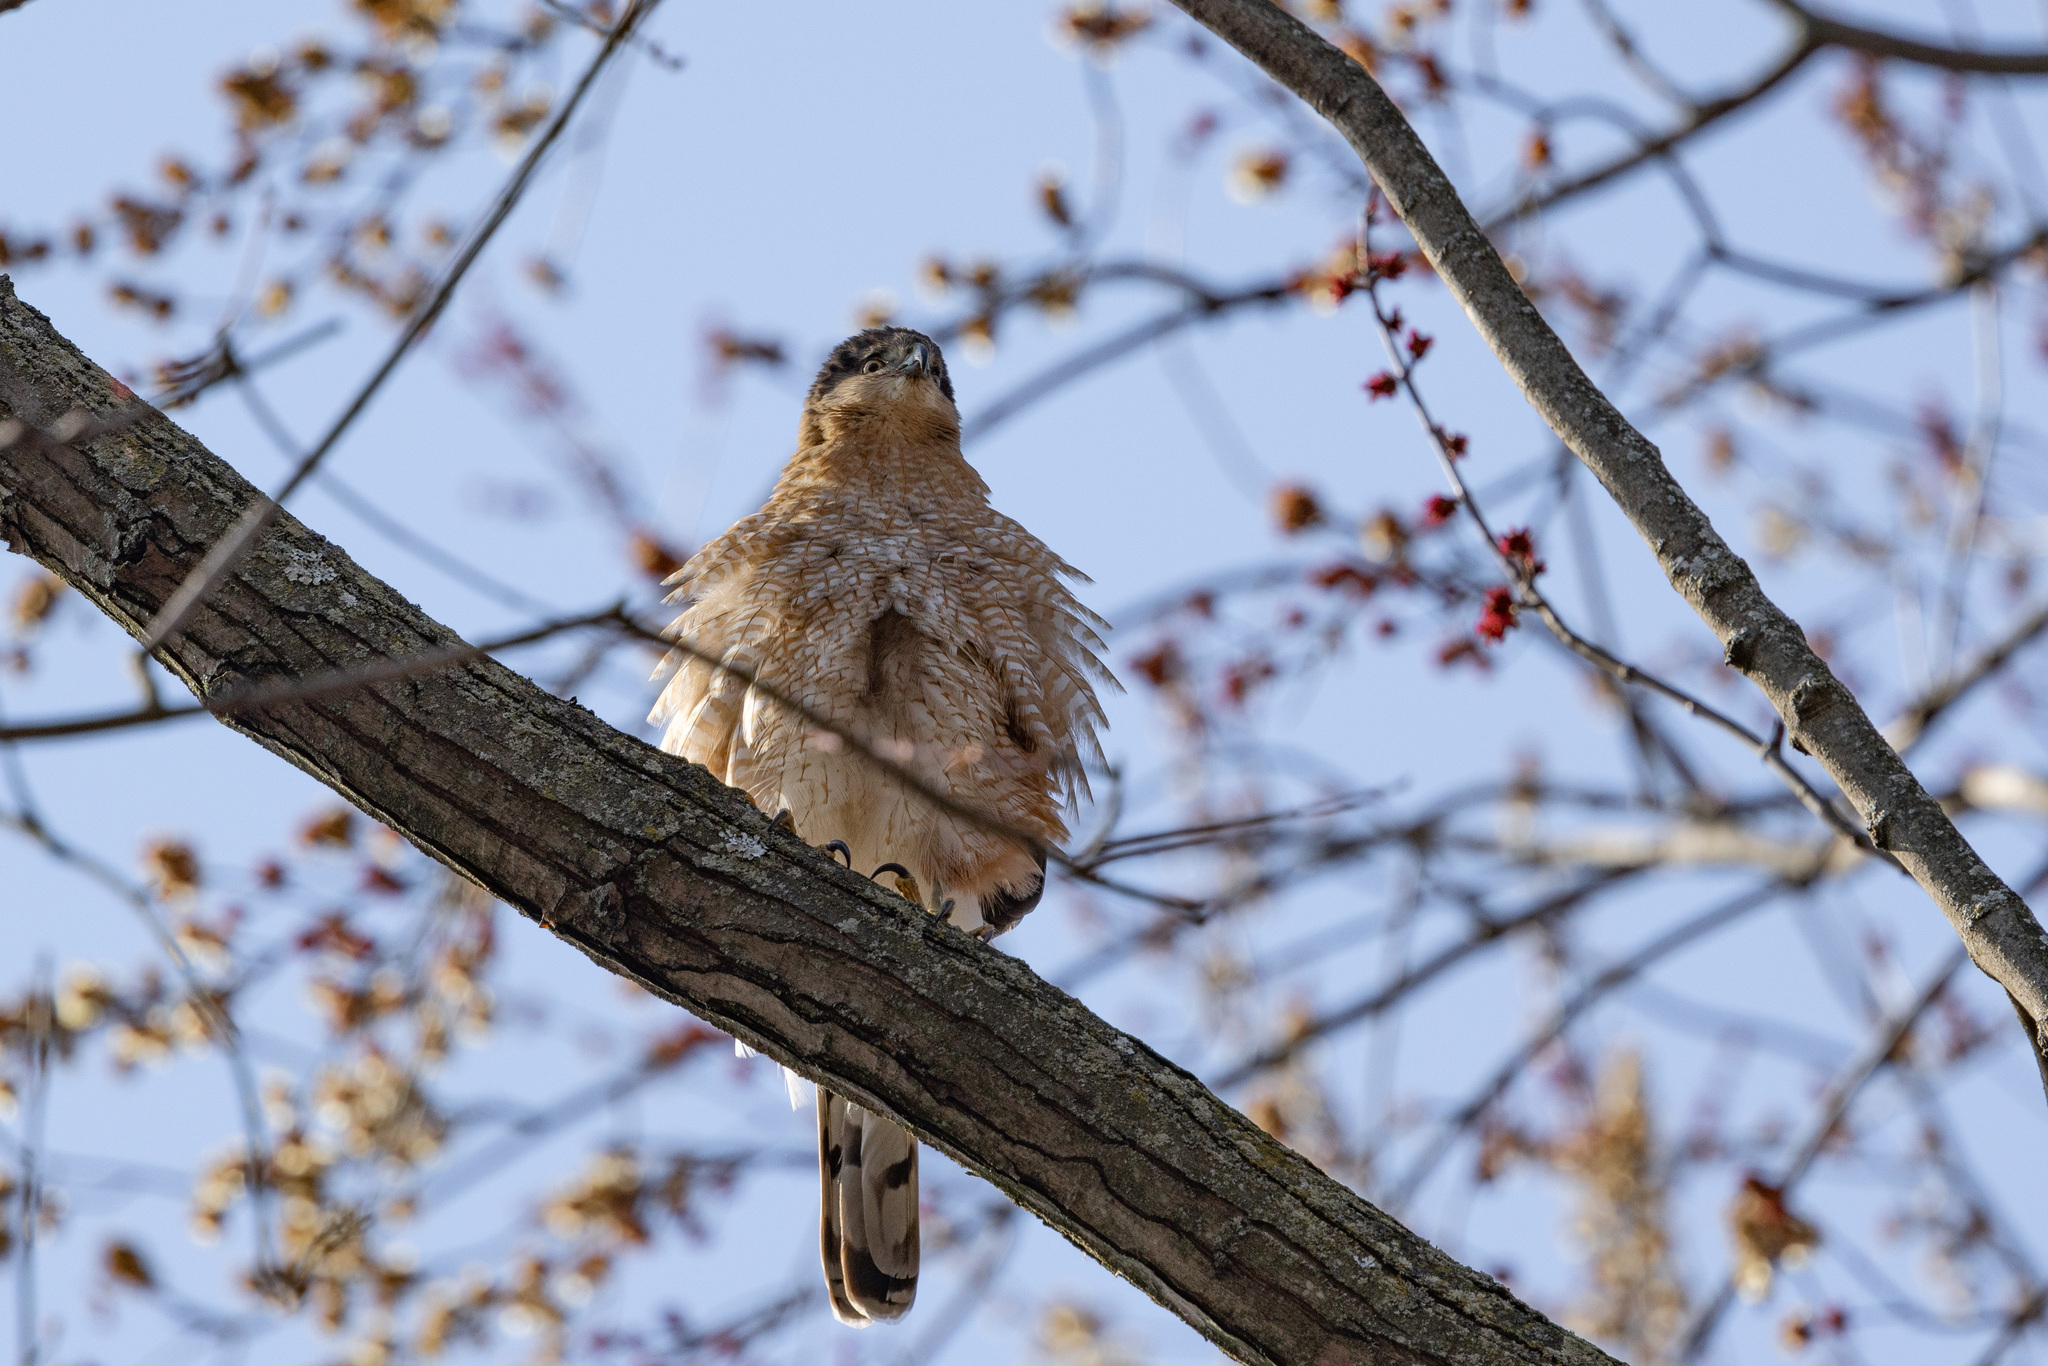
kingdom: Animalia
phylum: Chordata
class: Aves
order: Accipitriformes
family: Accipitridae
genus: Accipiter
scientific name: Accipiter cooperii
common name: Cooper's hawk
